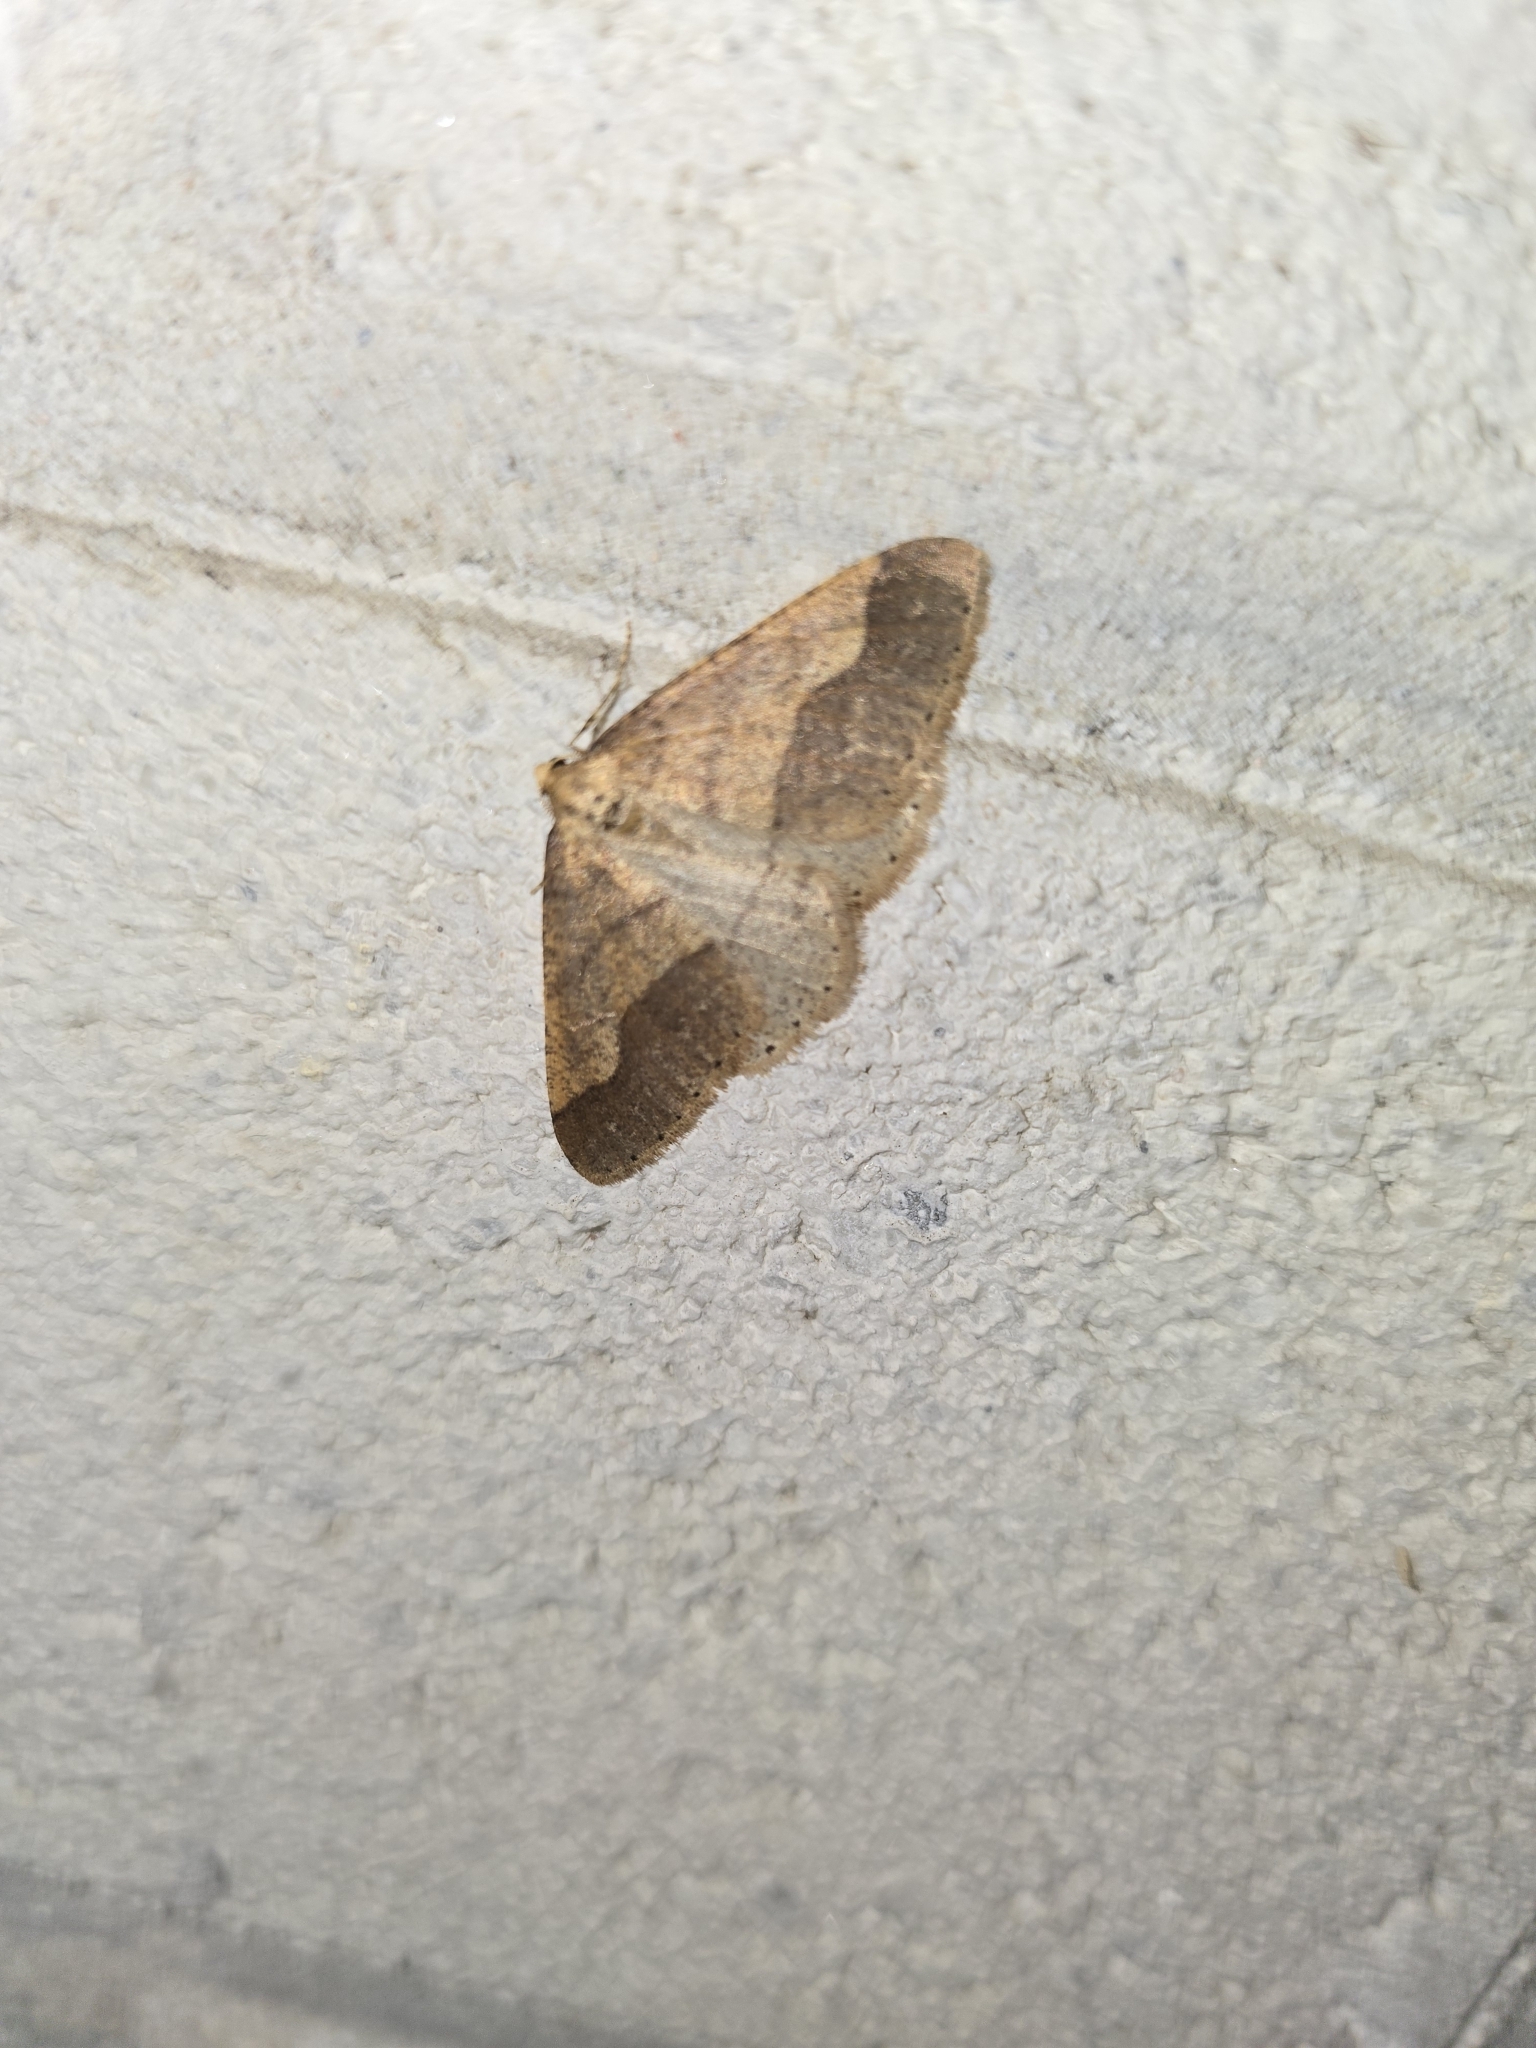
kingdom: Animalia
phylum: Arthropoda
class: Insecta
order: Lepidoptera
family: Geometridae
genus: Agriopis
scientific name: Agriopis marginaria
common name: Dotted border
